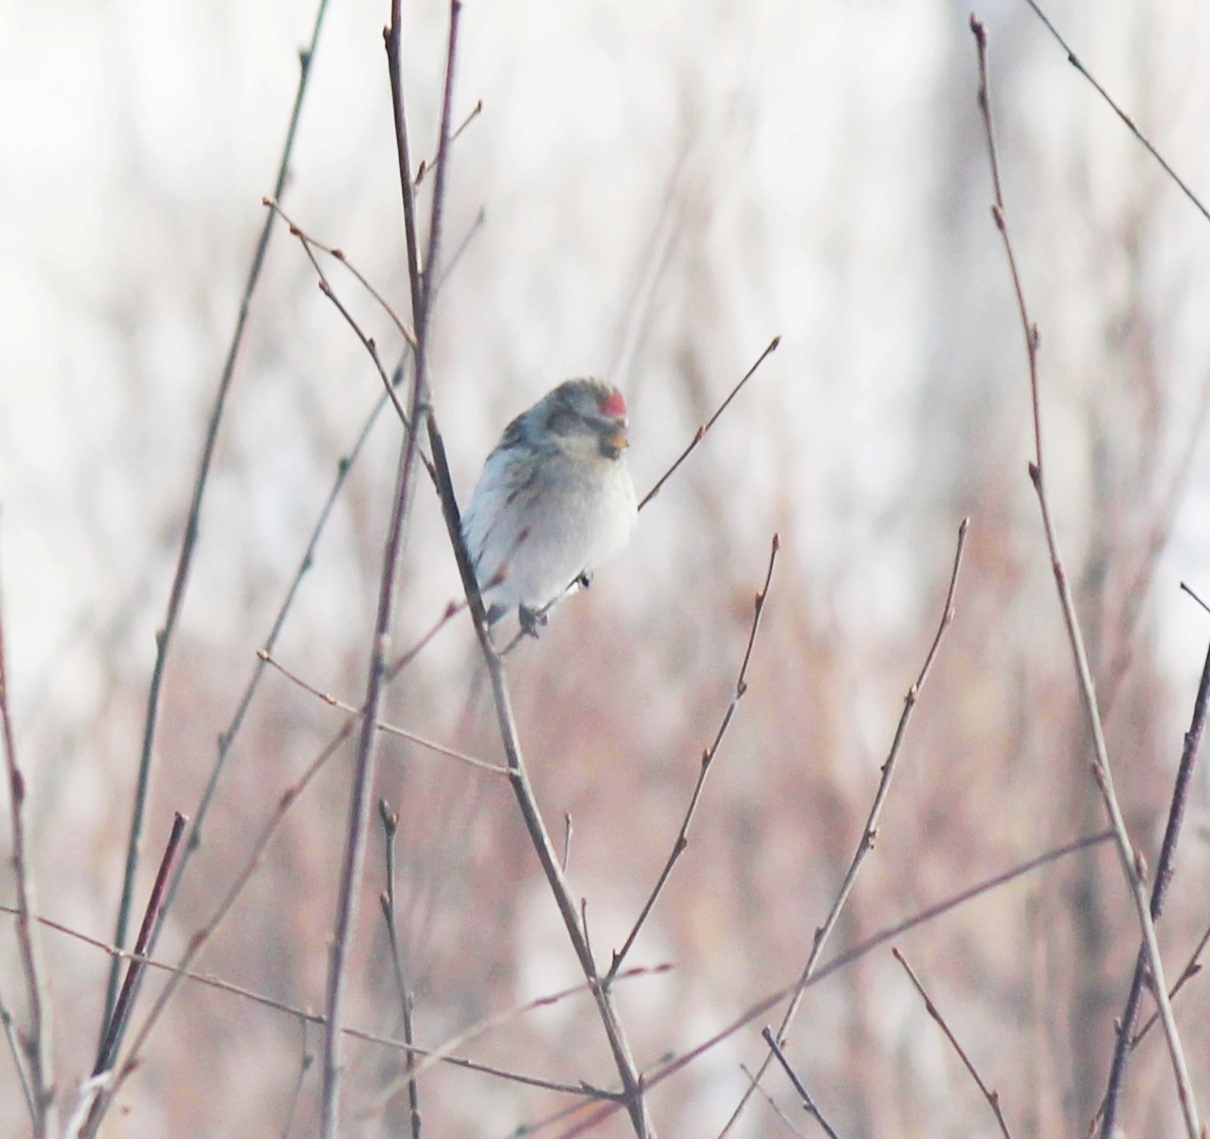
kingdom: Animalia
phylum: Chordata
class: Aves
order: Passeriformes
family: Fringillidae
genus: Acanthis
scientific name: Acanthis flammea
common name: Common redpoll
